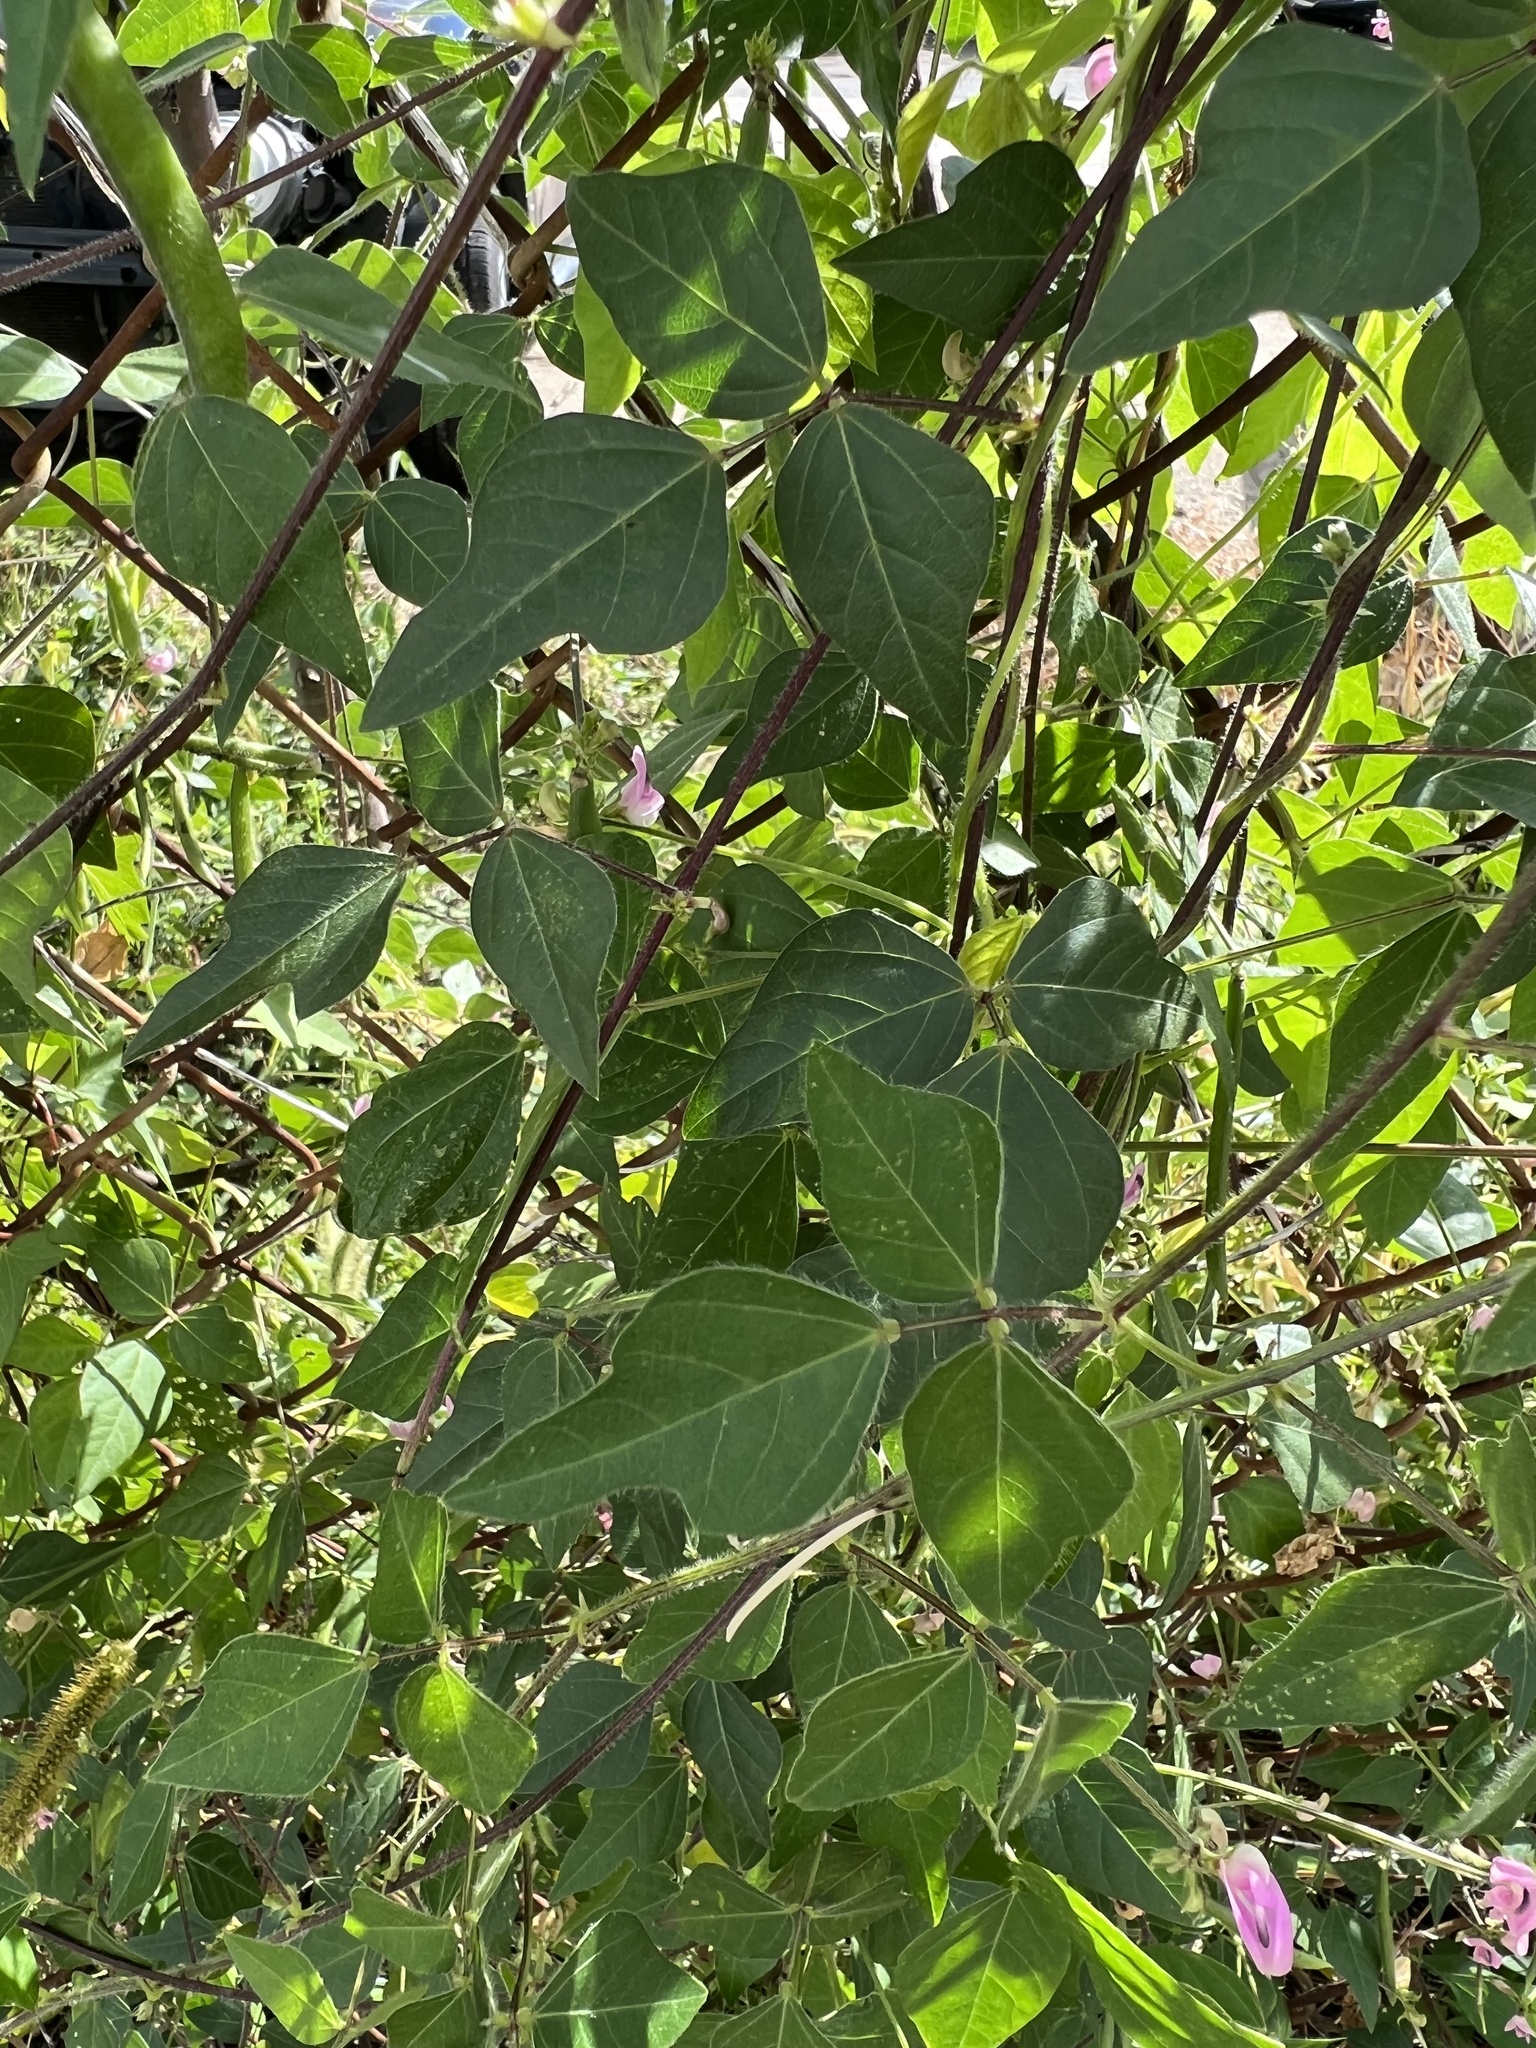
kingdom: Plantae
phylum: Tracheophyta
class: Magnoliopsida
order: Fabales
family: Fabaceae
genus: Strophostyles
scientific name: Strophostyles helvola
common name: Trailing wild bean
